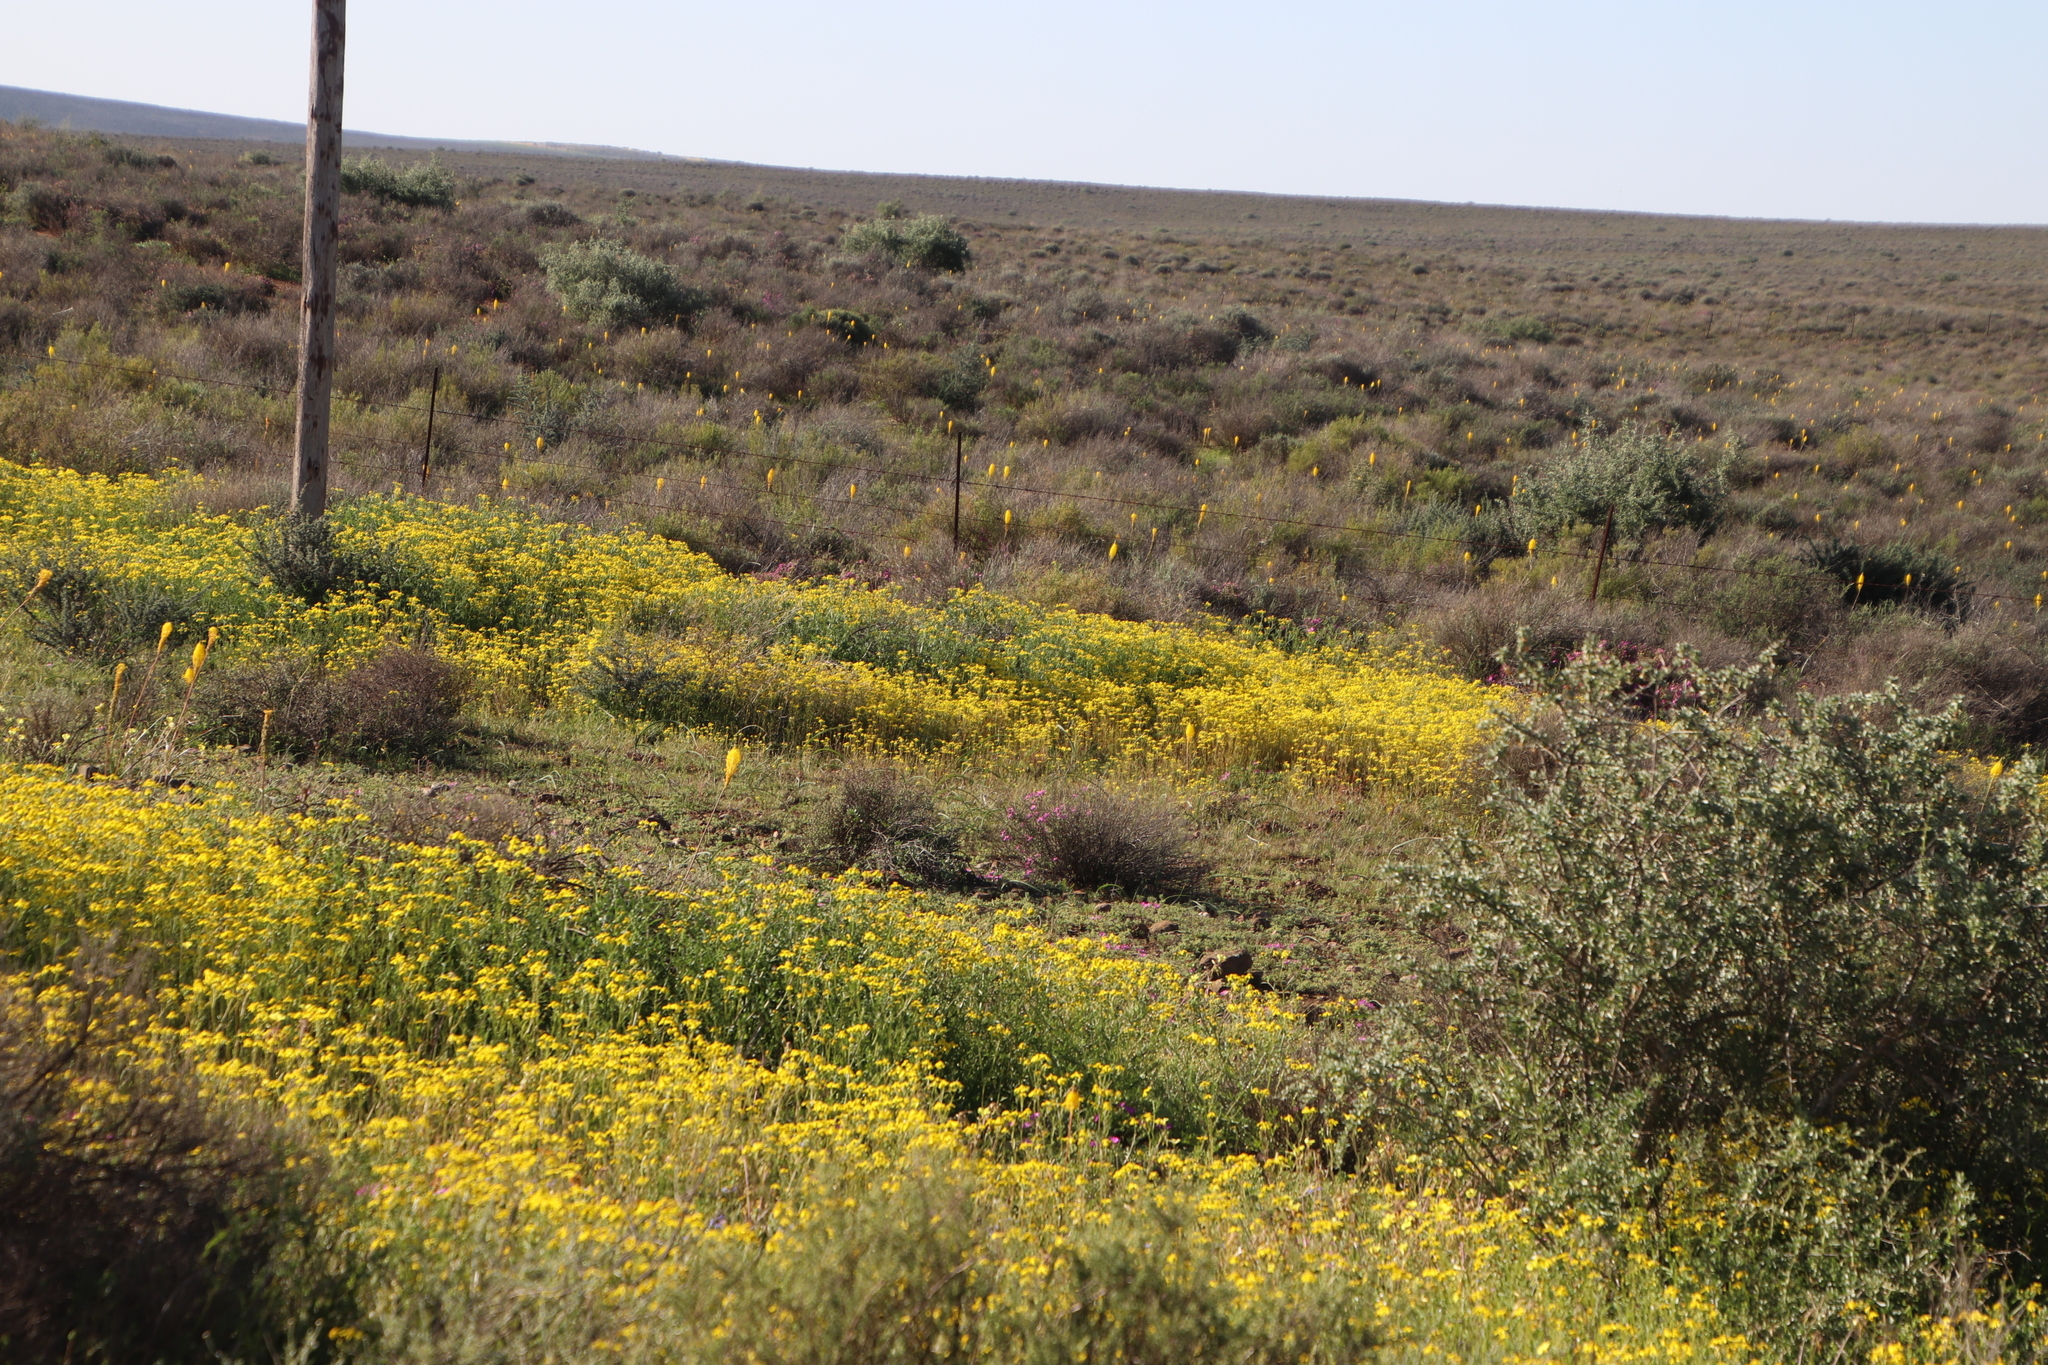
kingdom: Plantae
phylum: Tracheophyta
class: Magnoliopsida
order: Asterales
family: Asteraceae
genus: Senecio
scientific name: Senecio abruptus
